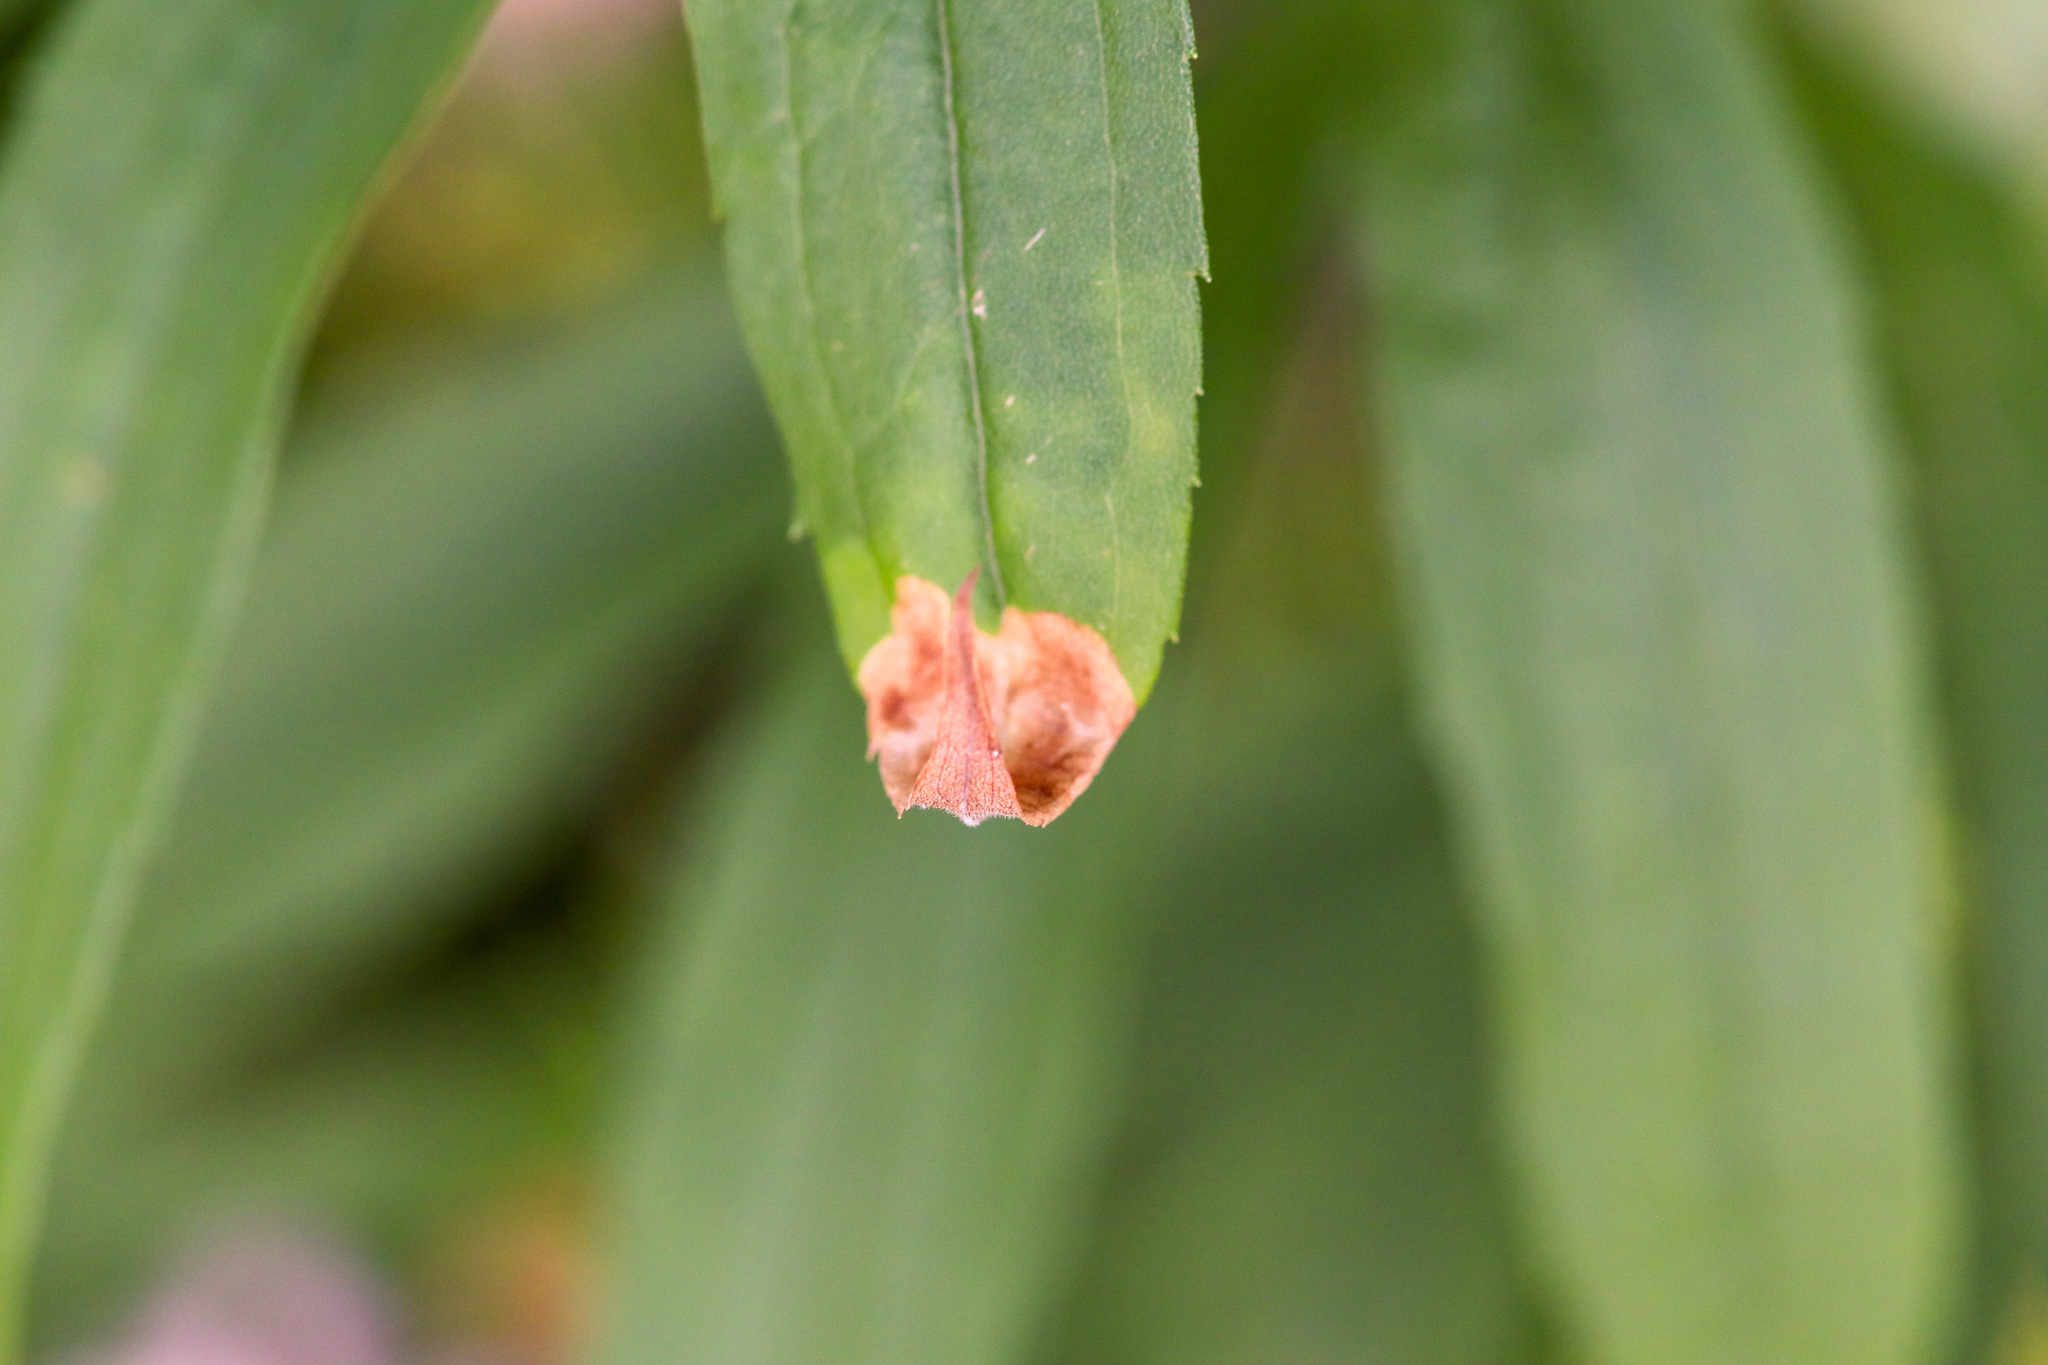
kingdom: Animalia
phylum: Arthropoda
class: Insecta
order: Diptera
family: Agromyzidae
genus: Nemorimyza
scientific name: Nemorimyza posticata
